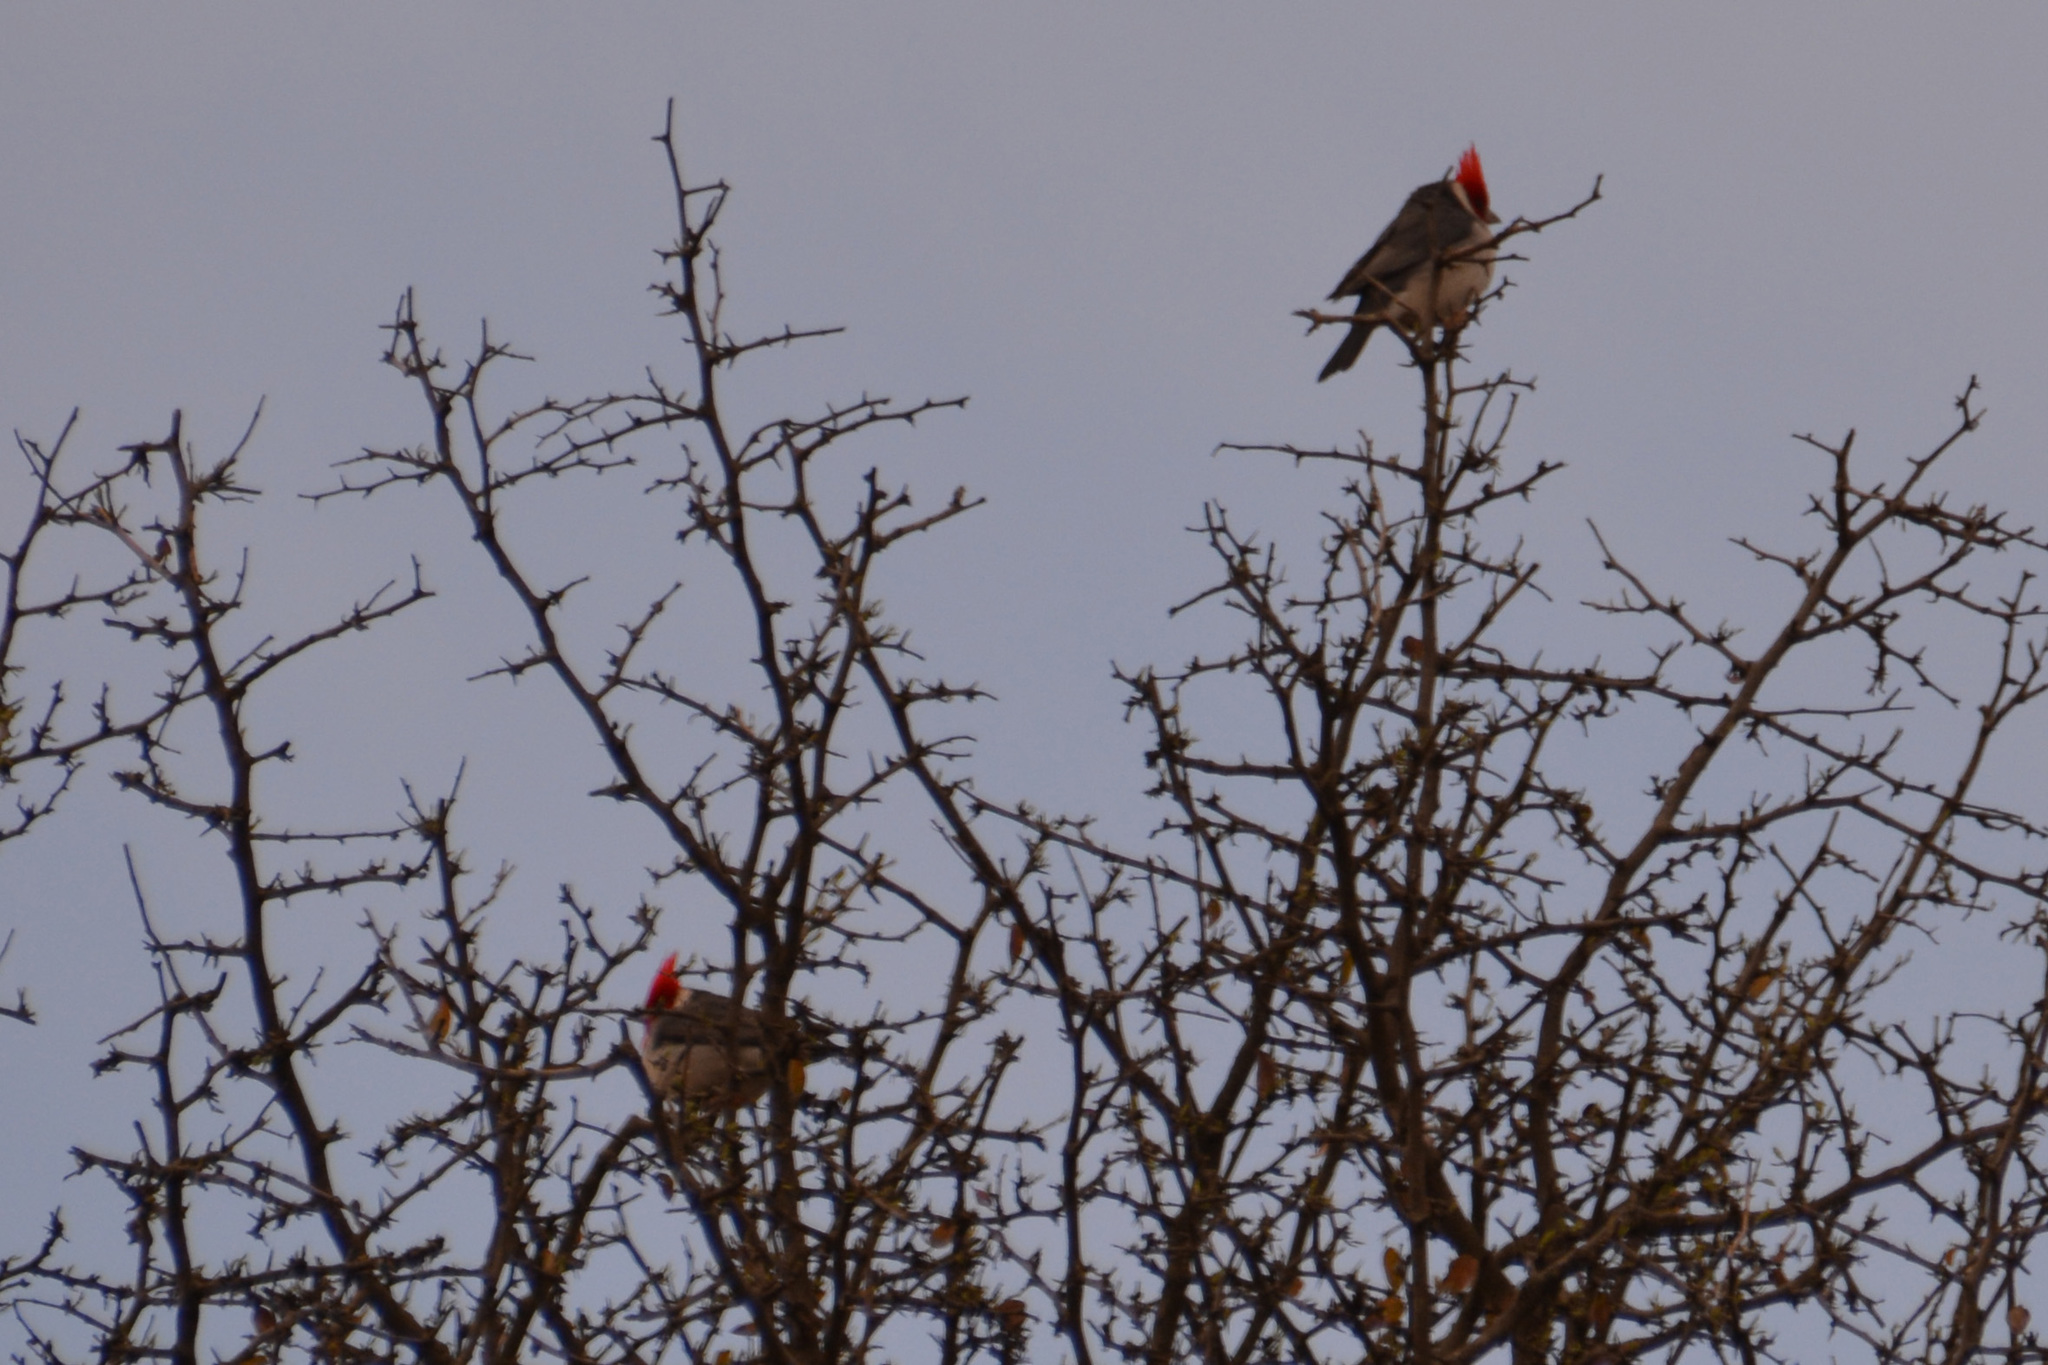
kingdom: Animalia
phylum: Chordata
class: Aves
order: Passeriformes
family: Thraupidae
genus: Paroaria
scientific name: Paroaria coronata
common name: Red-crested cardinal
